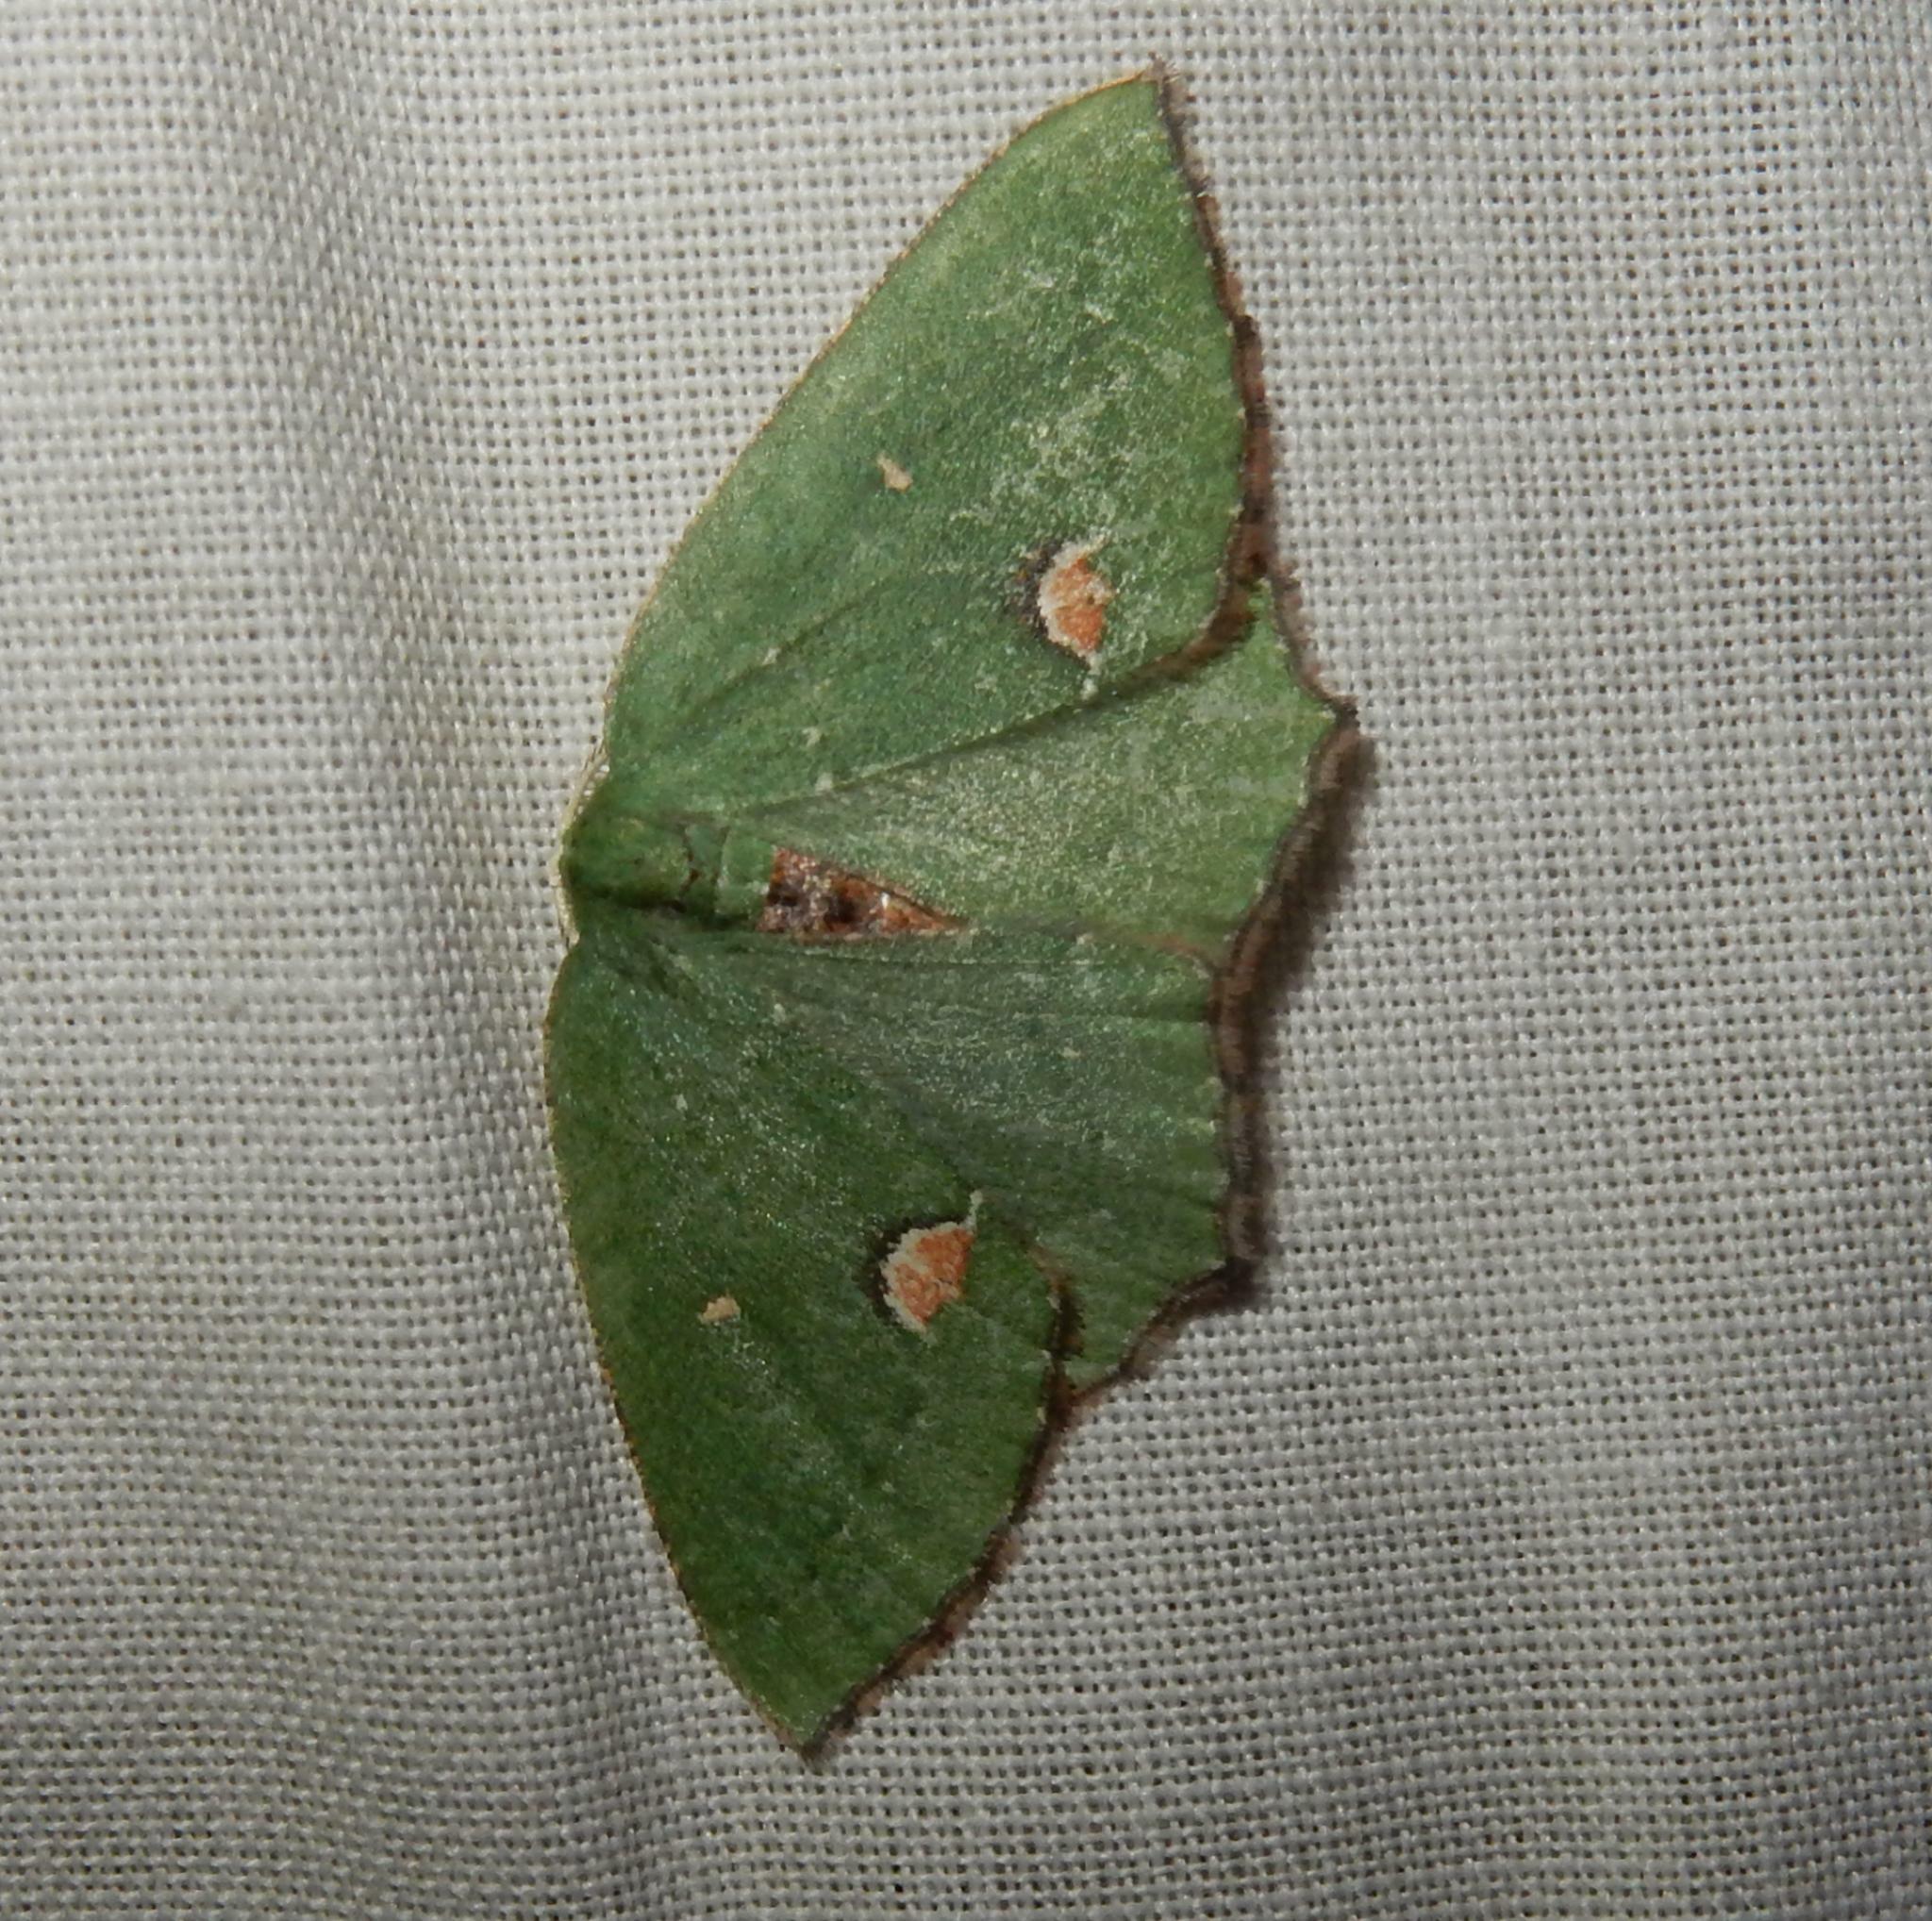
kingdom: Animalia
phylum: Arthropoda
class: Insecta
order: Lepidoptera
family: Geometridae
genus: Lasiochlora
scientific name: Lasiochlora diducta
